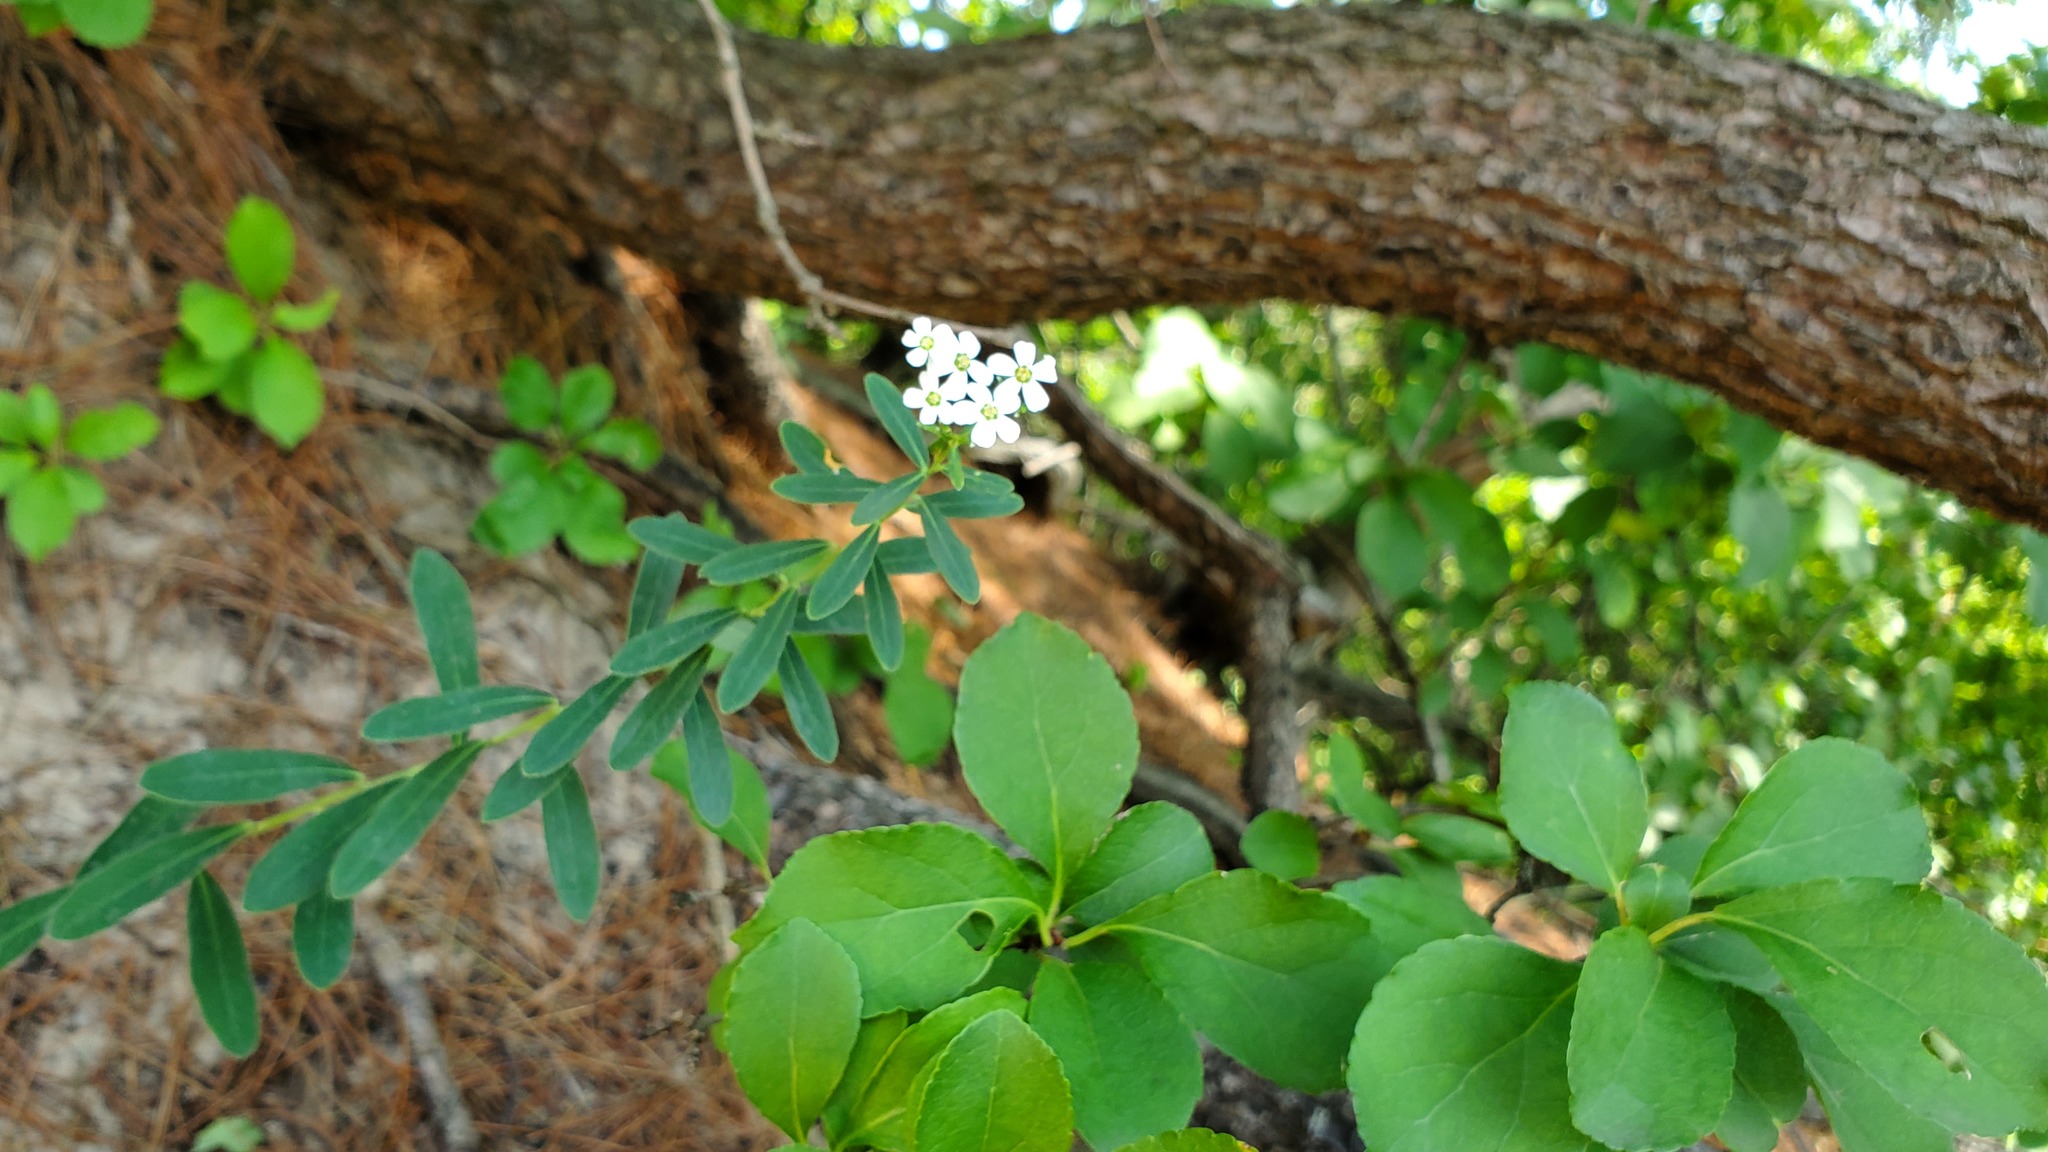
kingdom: Plantae
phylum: Tracheophyta
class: Magnoliopsida
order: Malpighiales
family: Euphorbiaceae
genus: Euphorbia
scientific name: Euphorbia corollata
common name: Flowering spurge
